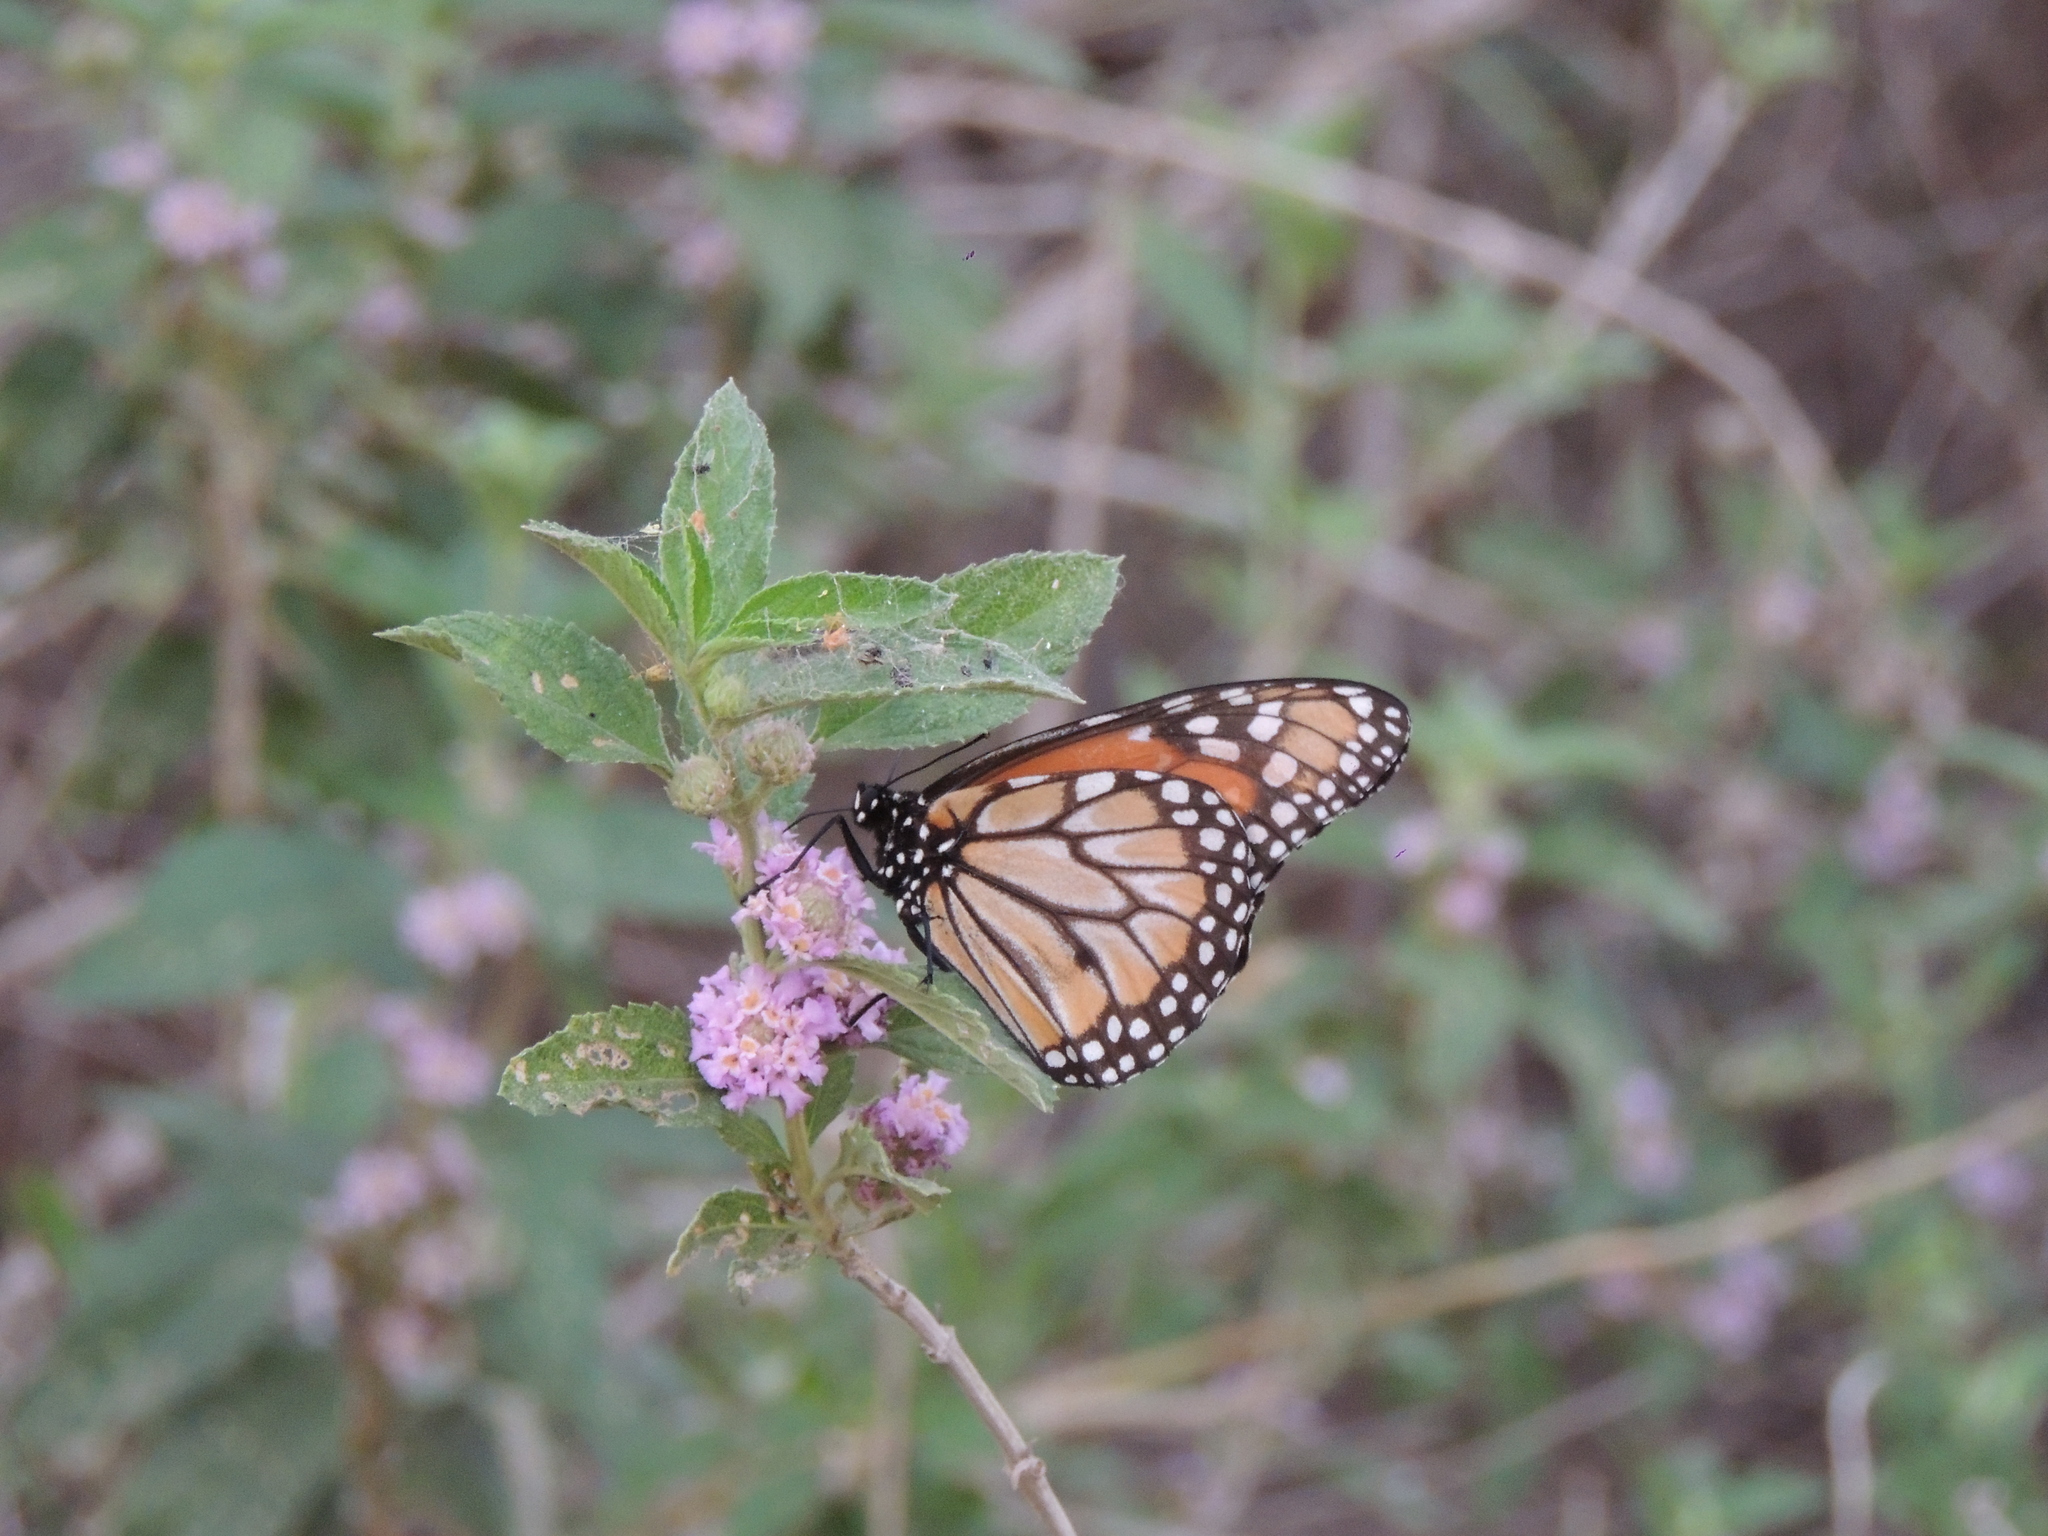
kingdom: Animalia
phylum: Arthropoda
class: Insecta
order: Lepidoptera
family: Nymphalidae
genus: Danaus
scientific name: Danaus erippus
